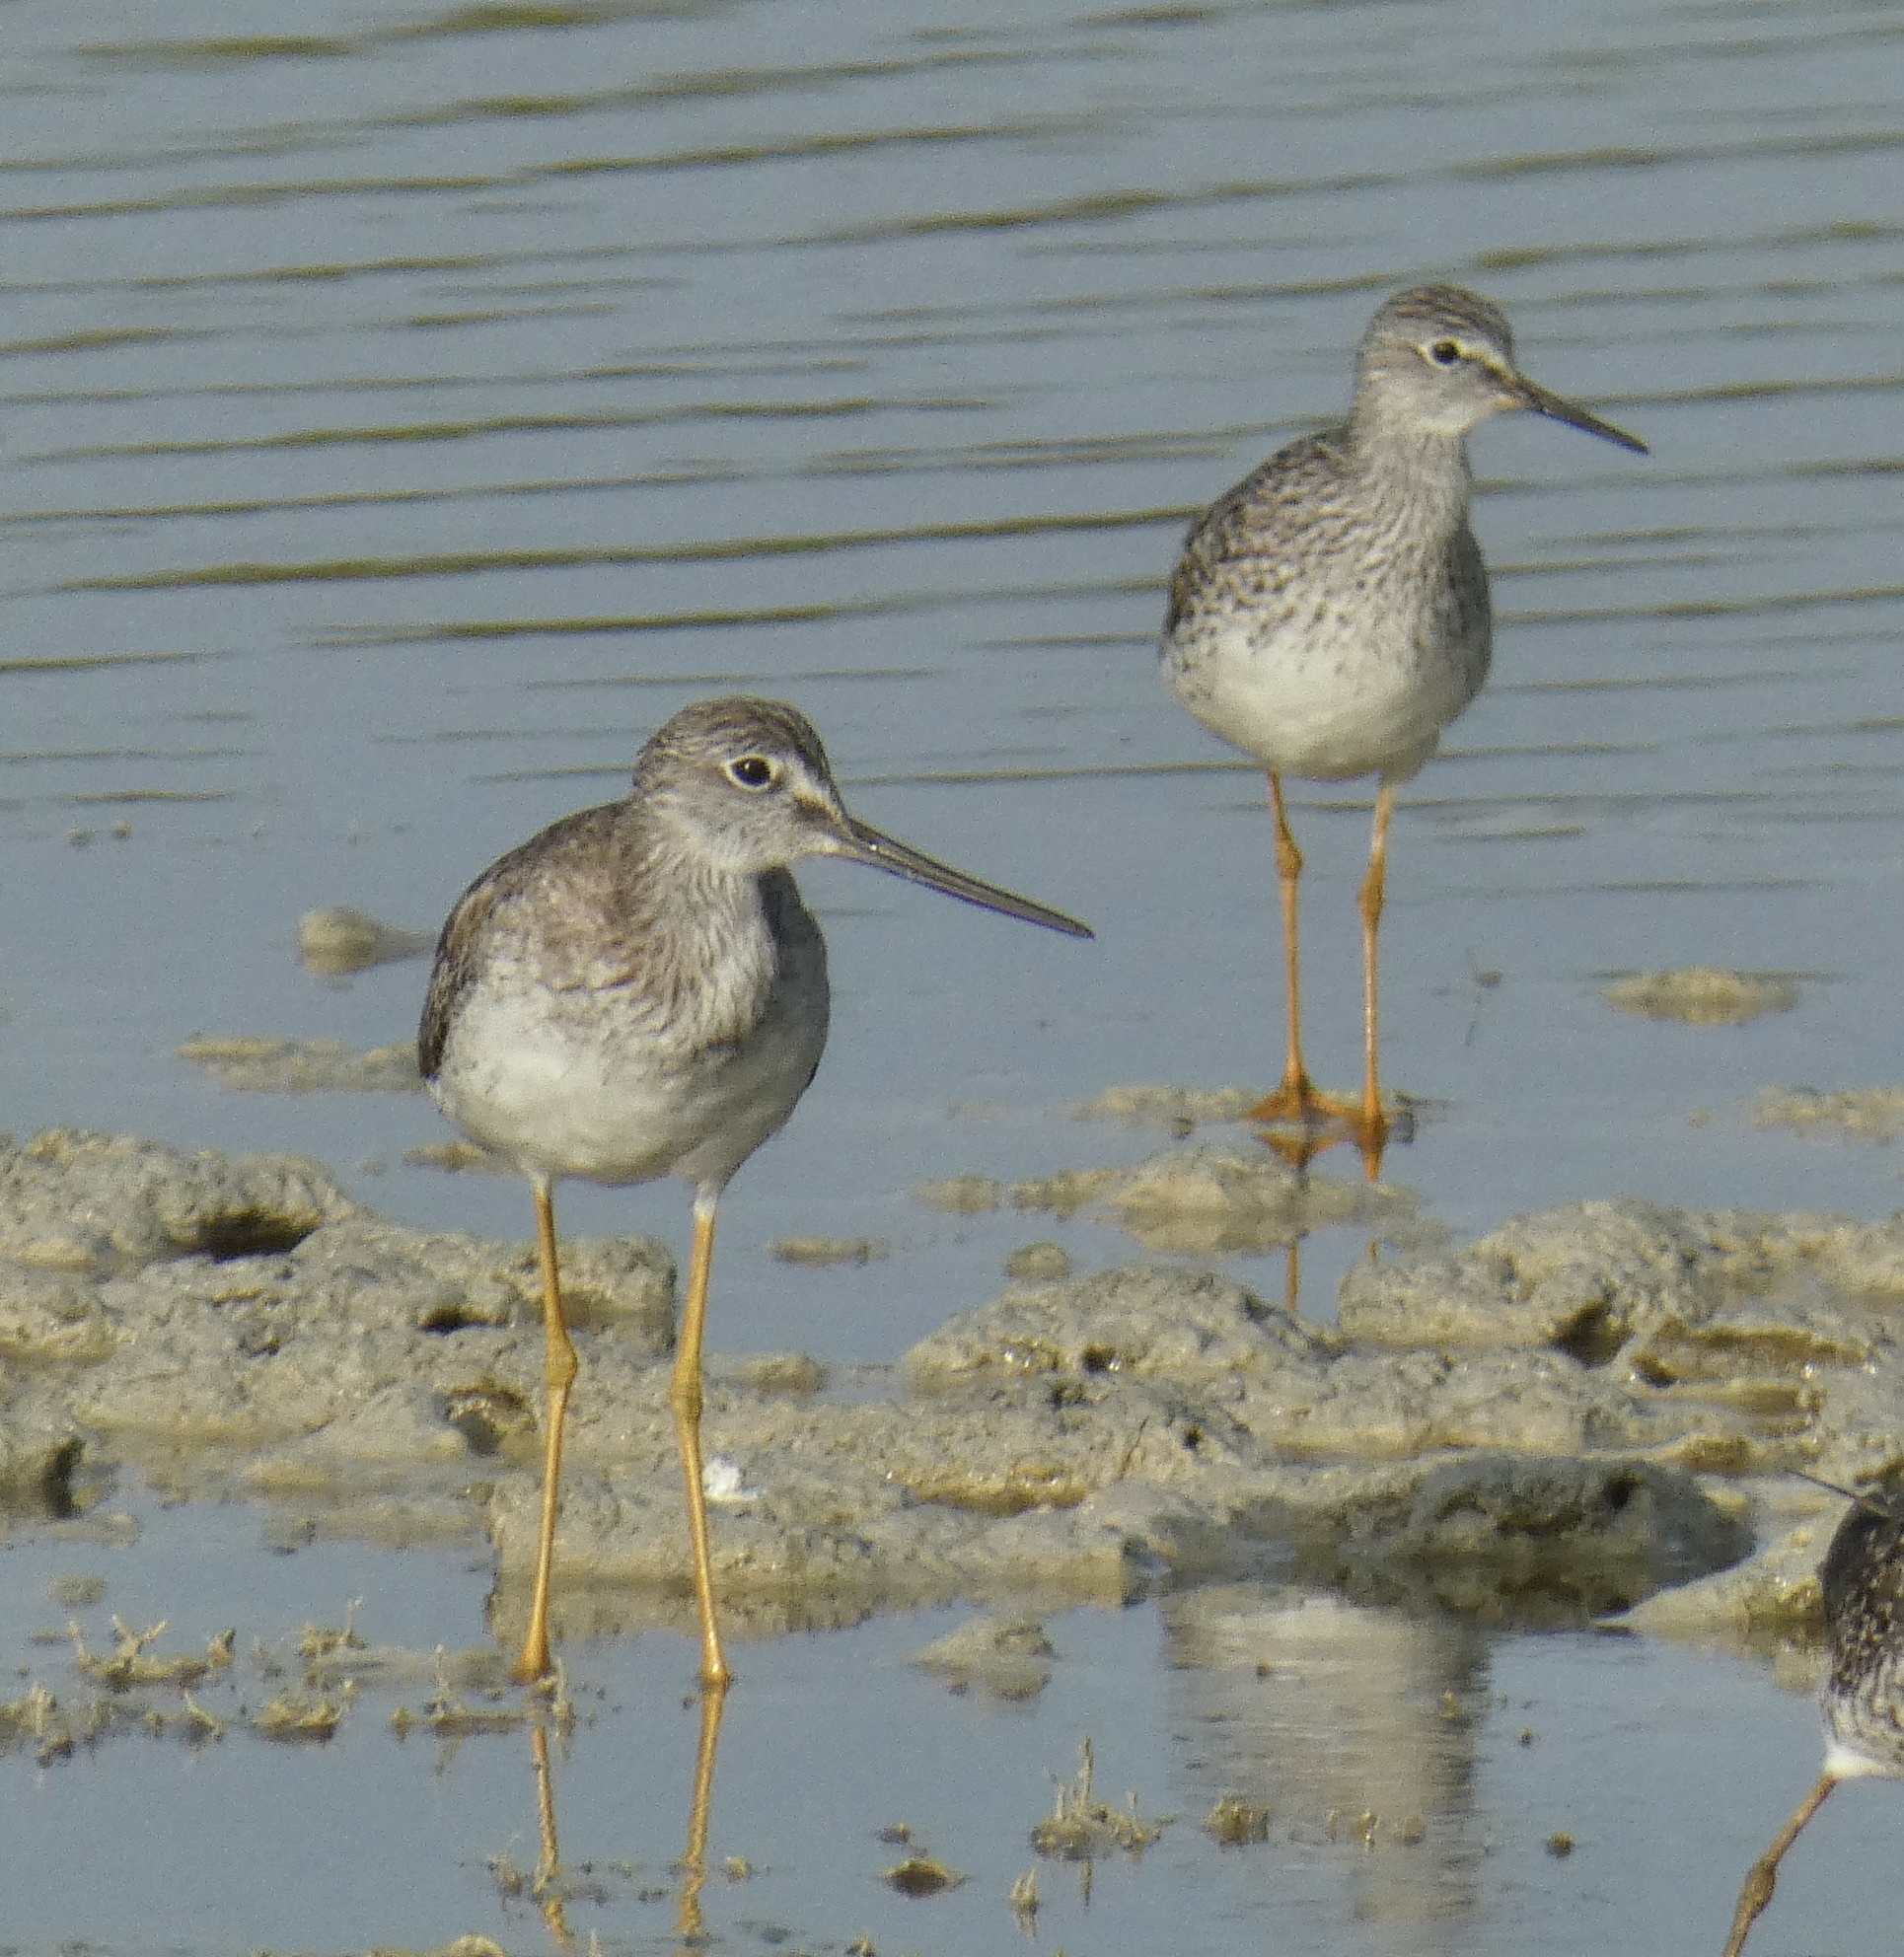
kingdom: Animalia
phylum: Chordata
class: Aves
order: Charadriiformes
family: Scolopacidae
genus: Tringa
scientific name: Tringa melanoleuca
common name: Greater yellowlegs
